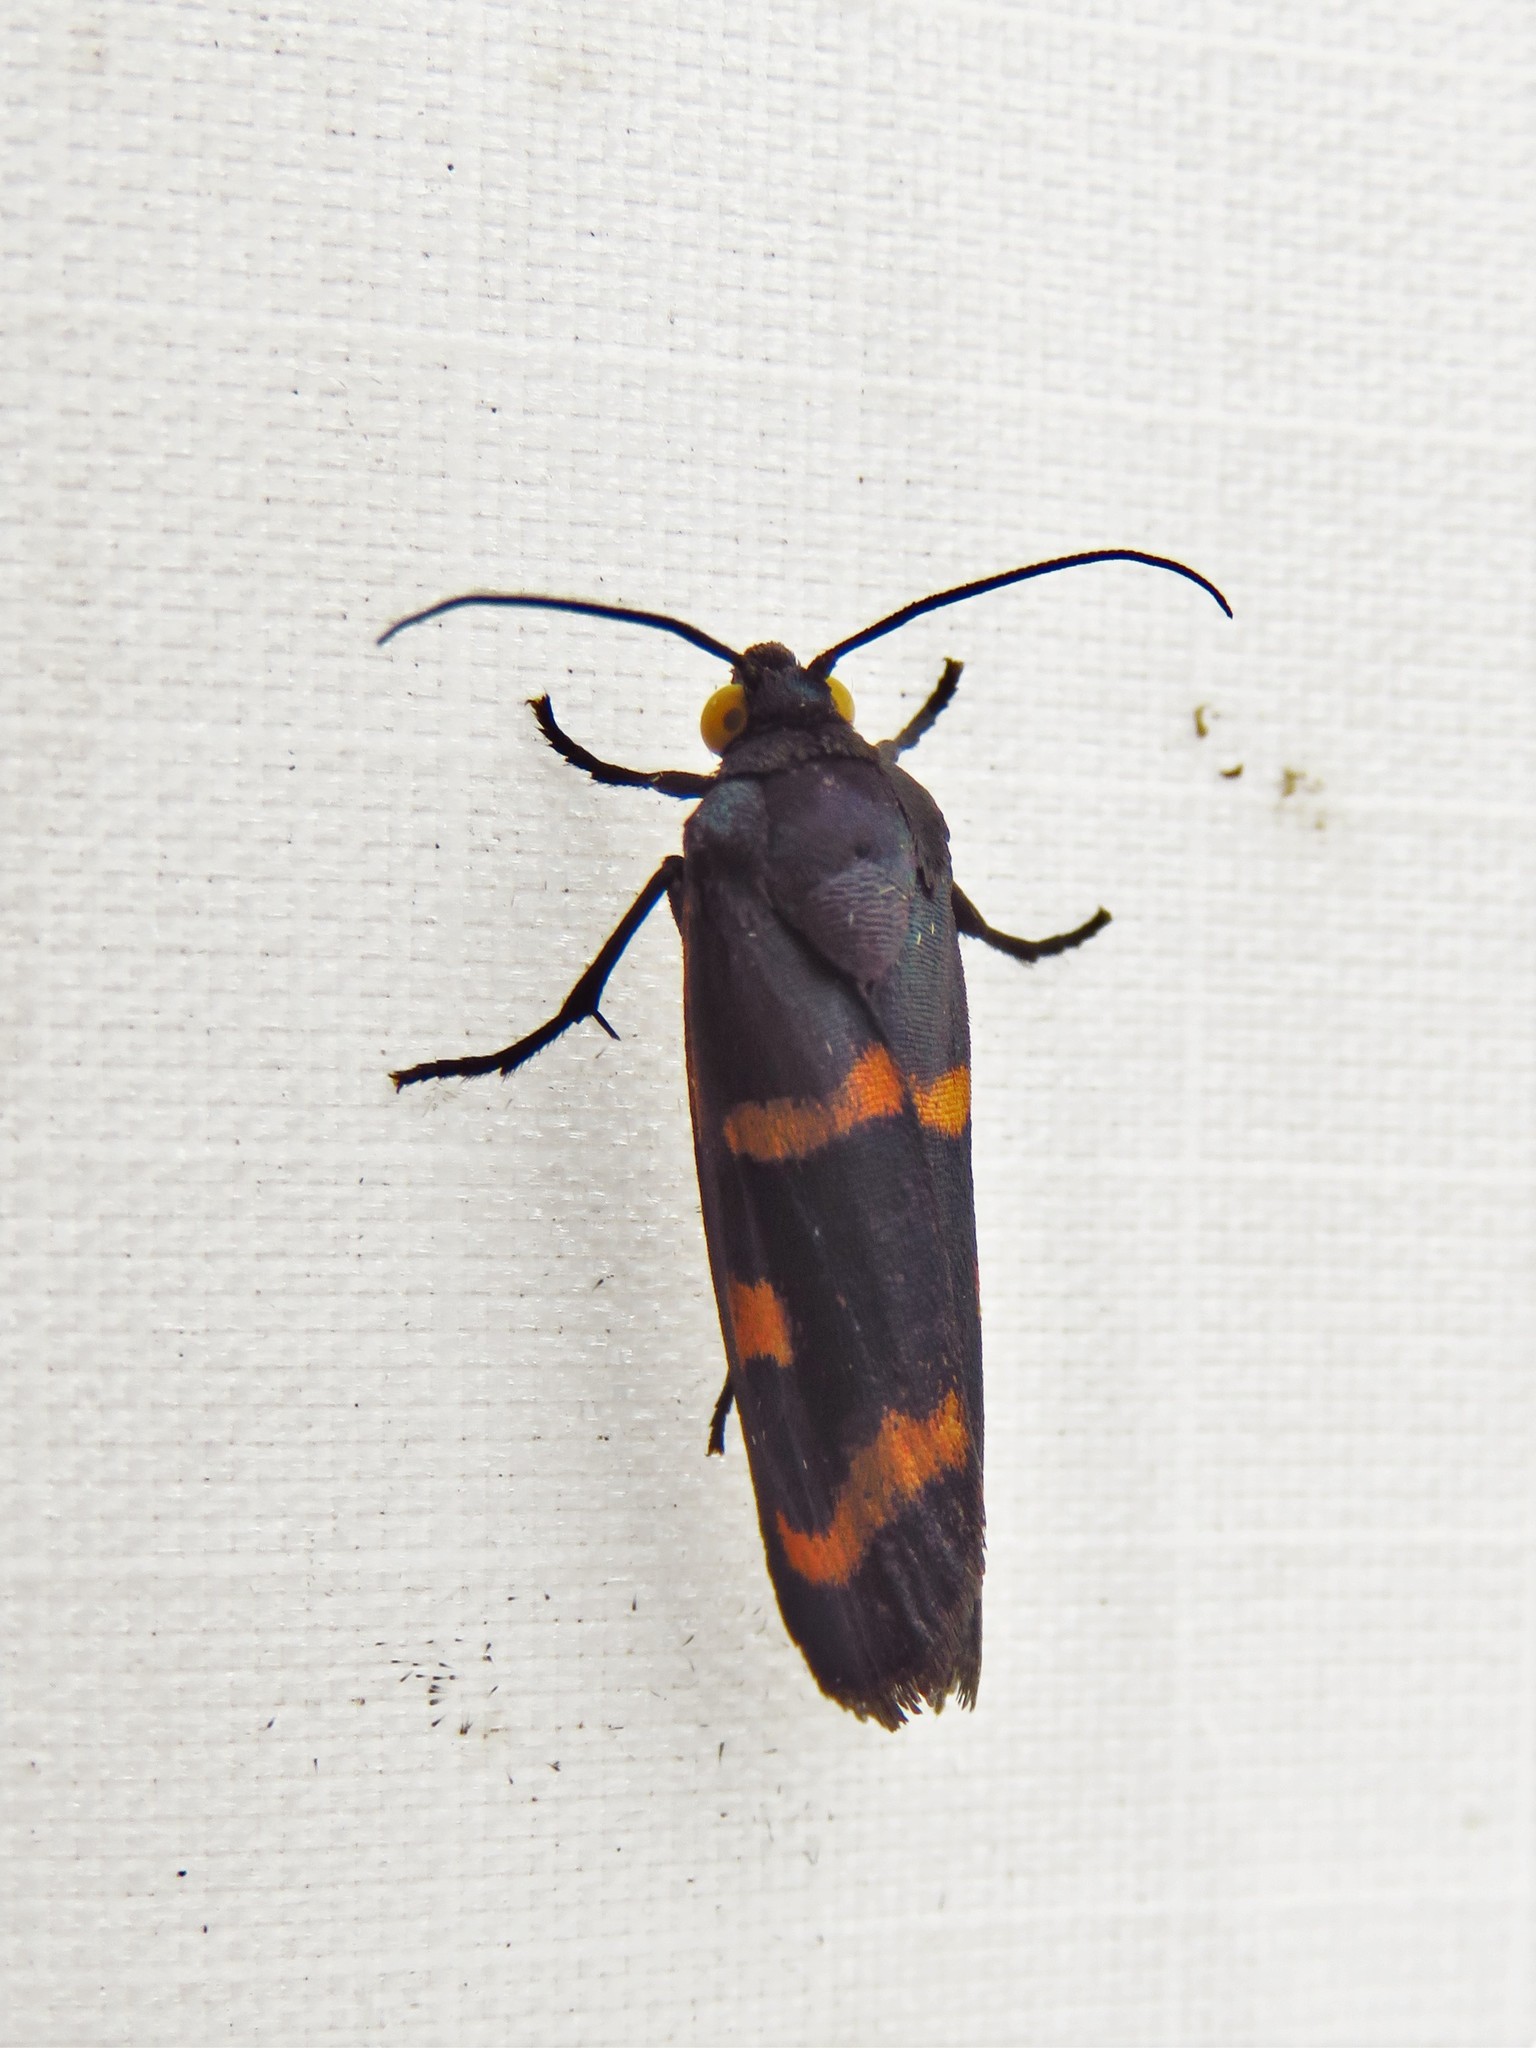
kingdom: Animalia
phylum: Arthropoda
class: Insecta
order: Lepidoptera
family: Noctuidae
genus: Cydosia
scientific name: Cydosia aurivitta
